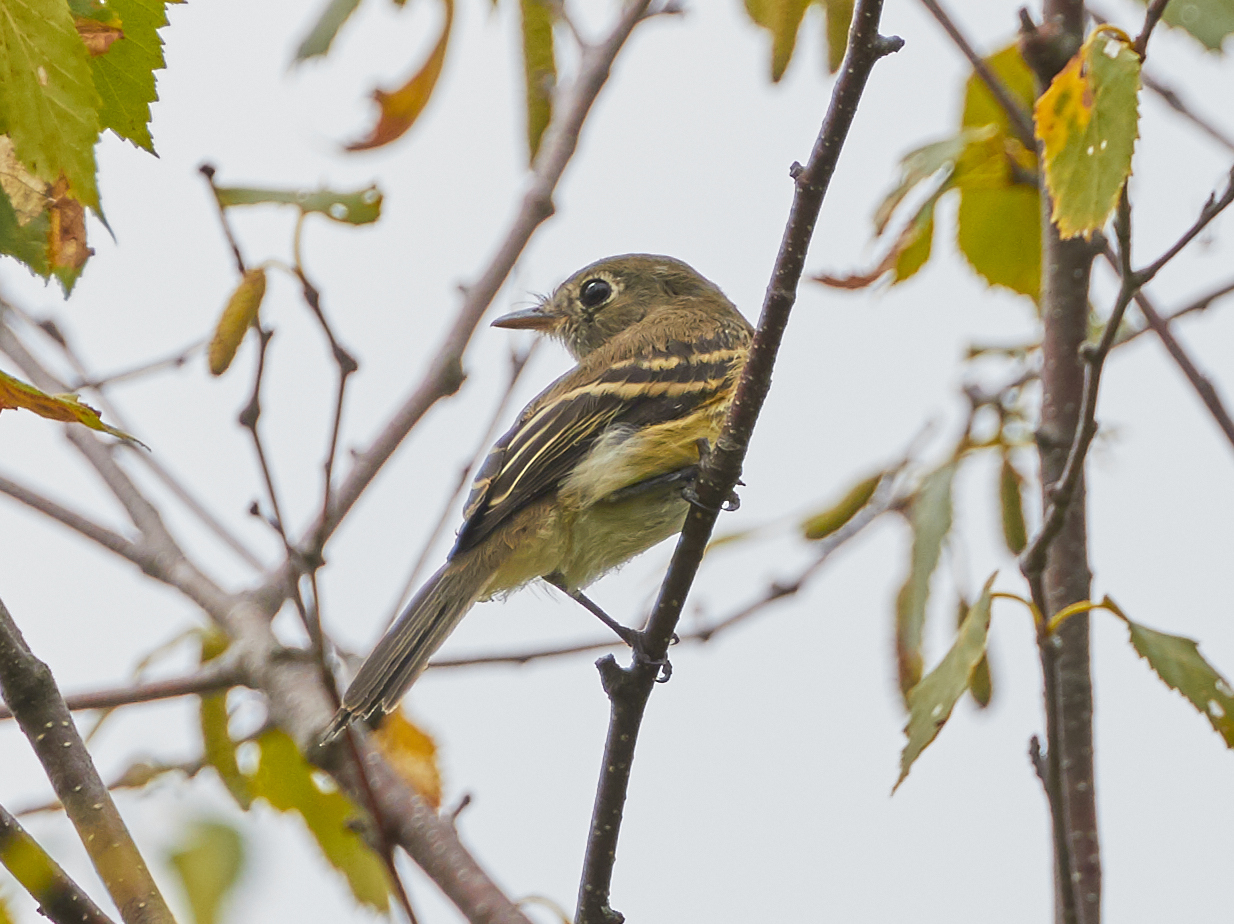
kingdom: Animalia
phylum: Chordata
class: Aves
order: Passeriformes
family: Tyrannidae
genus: Empidonax
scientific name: Empidonax minimus
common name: Least flycatcher
